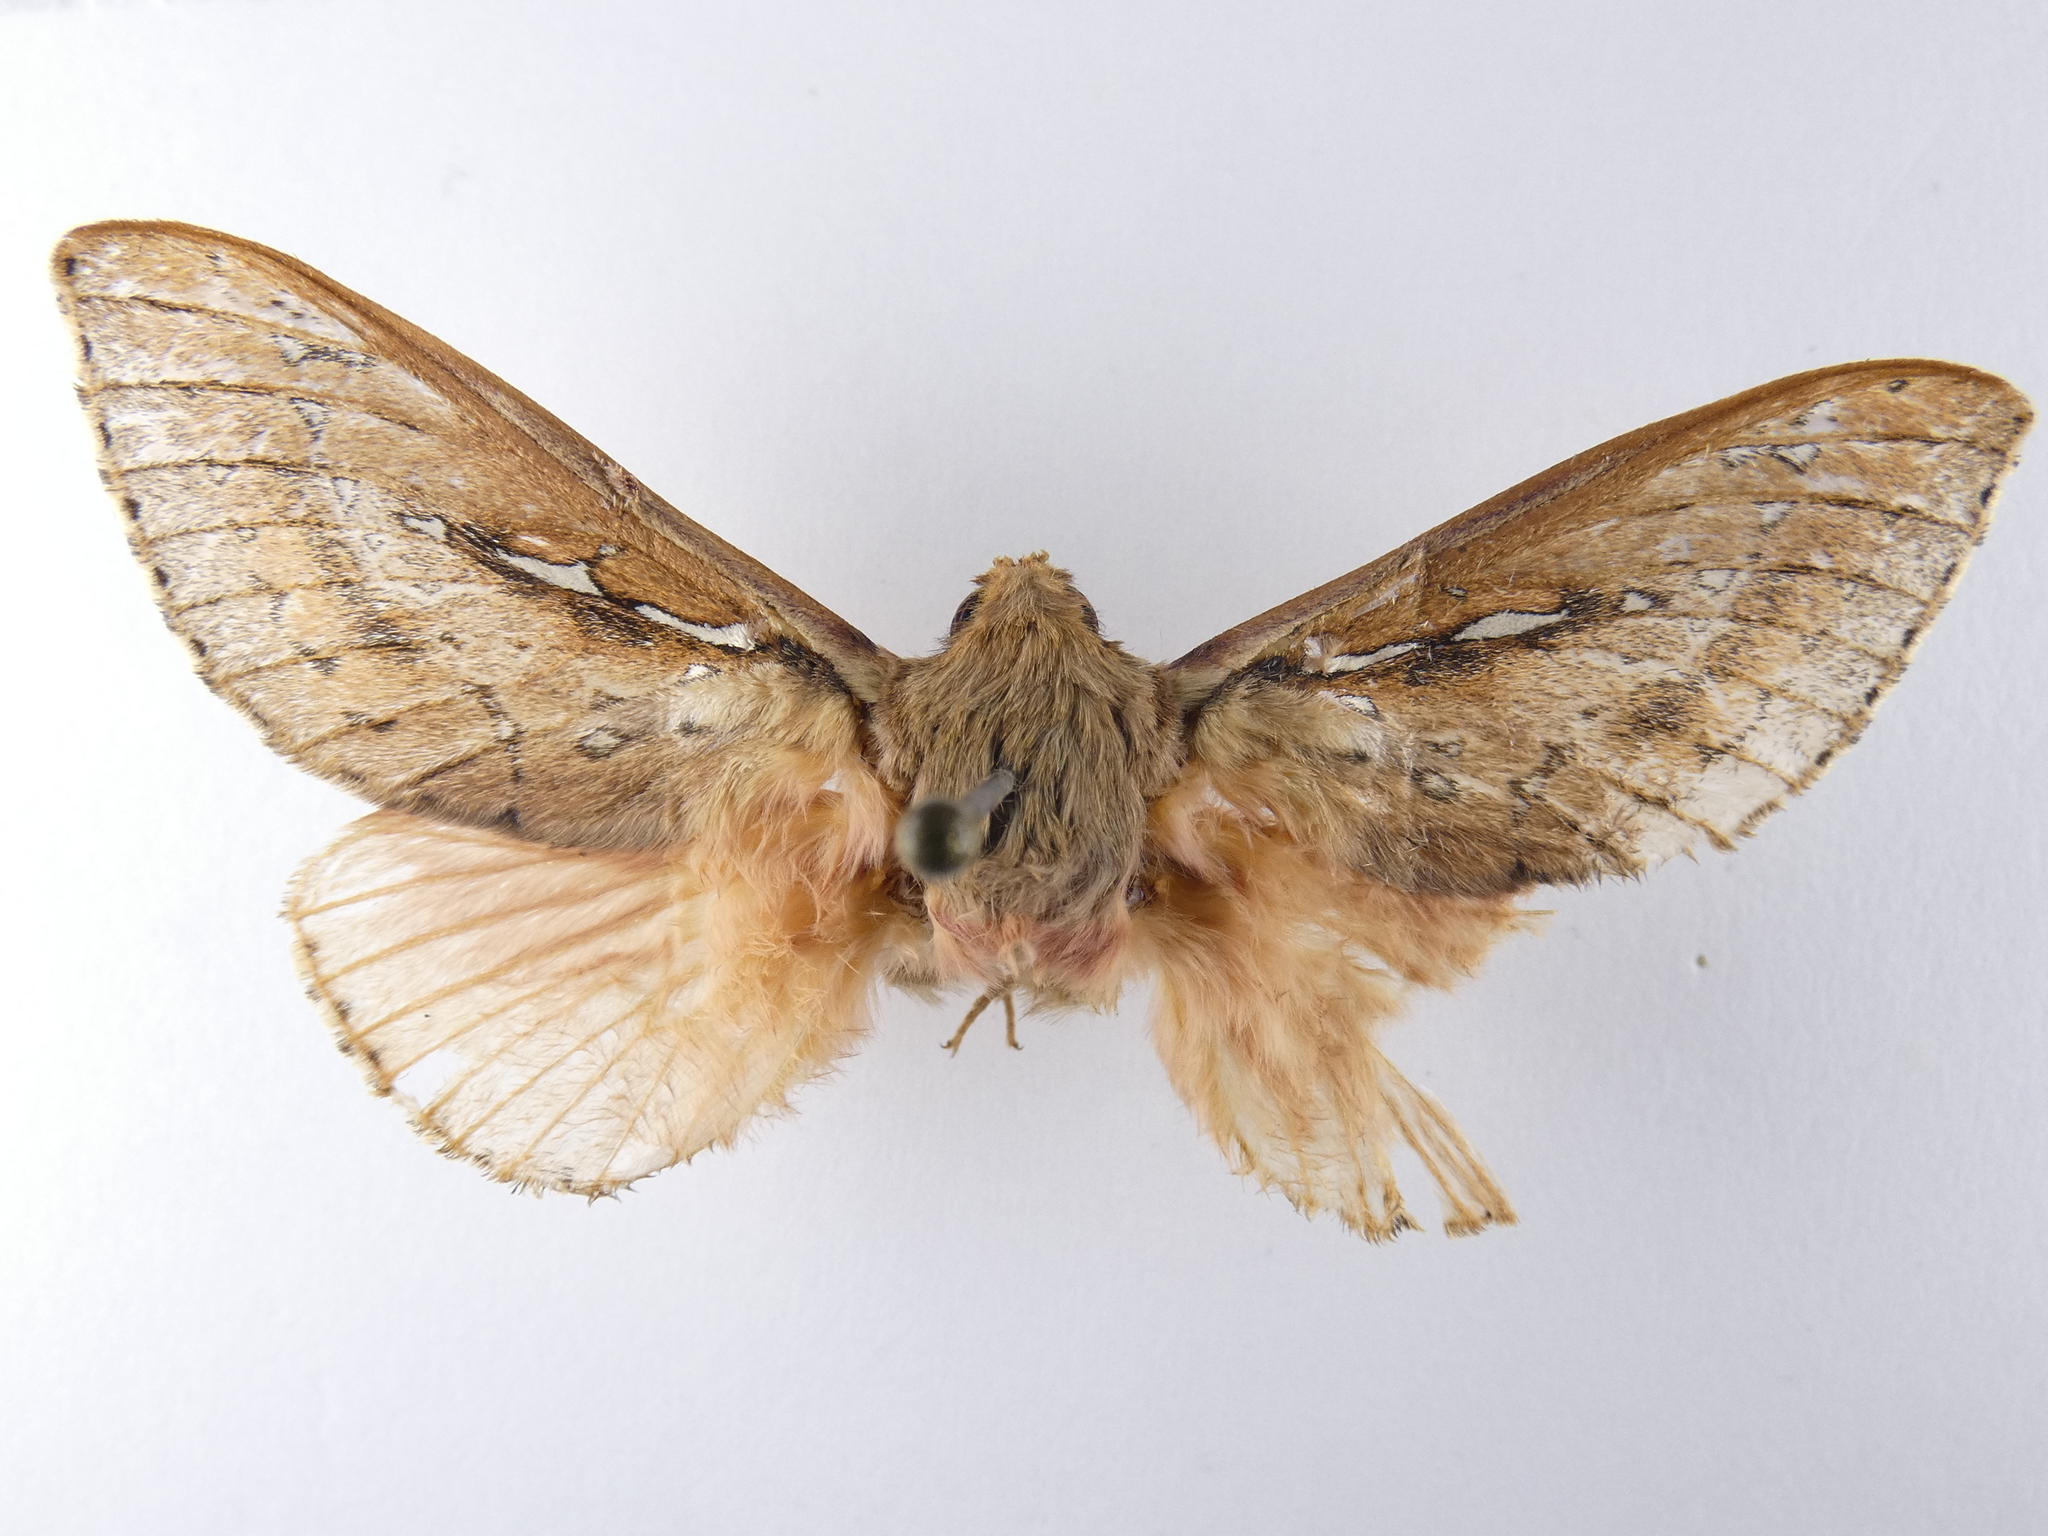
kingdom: Animalia
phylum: Arthropoda
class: Insecta
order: Lepidoptera
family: Hepialidae
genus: Wiseana
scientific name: Wiseana signata
